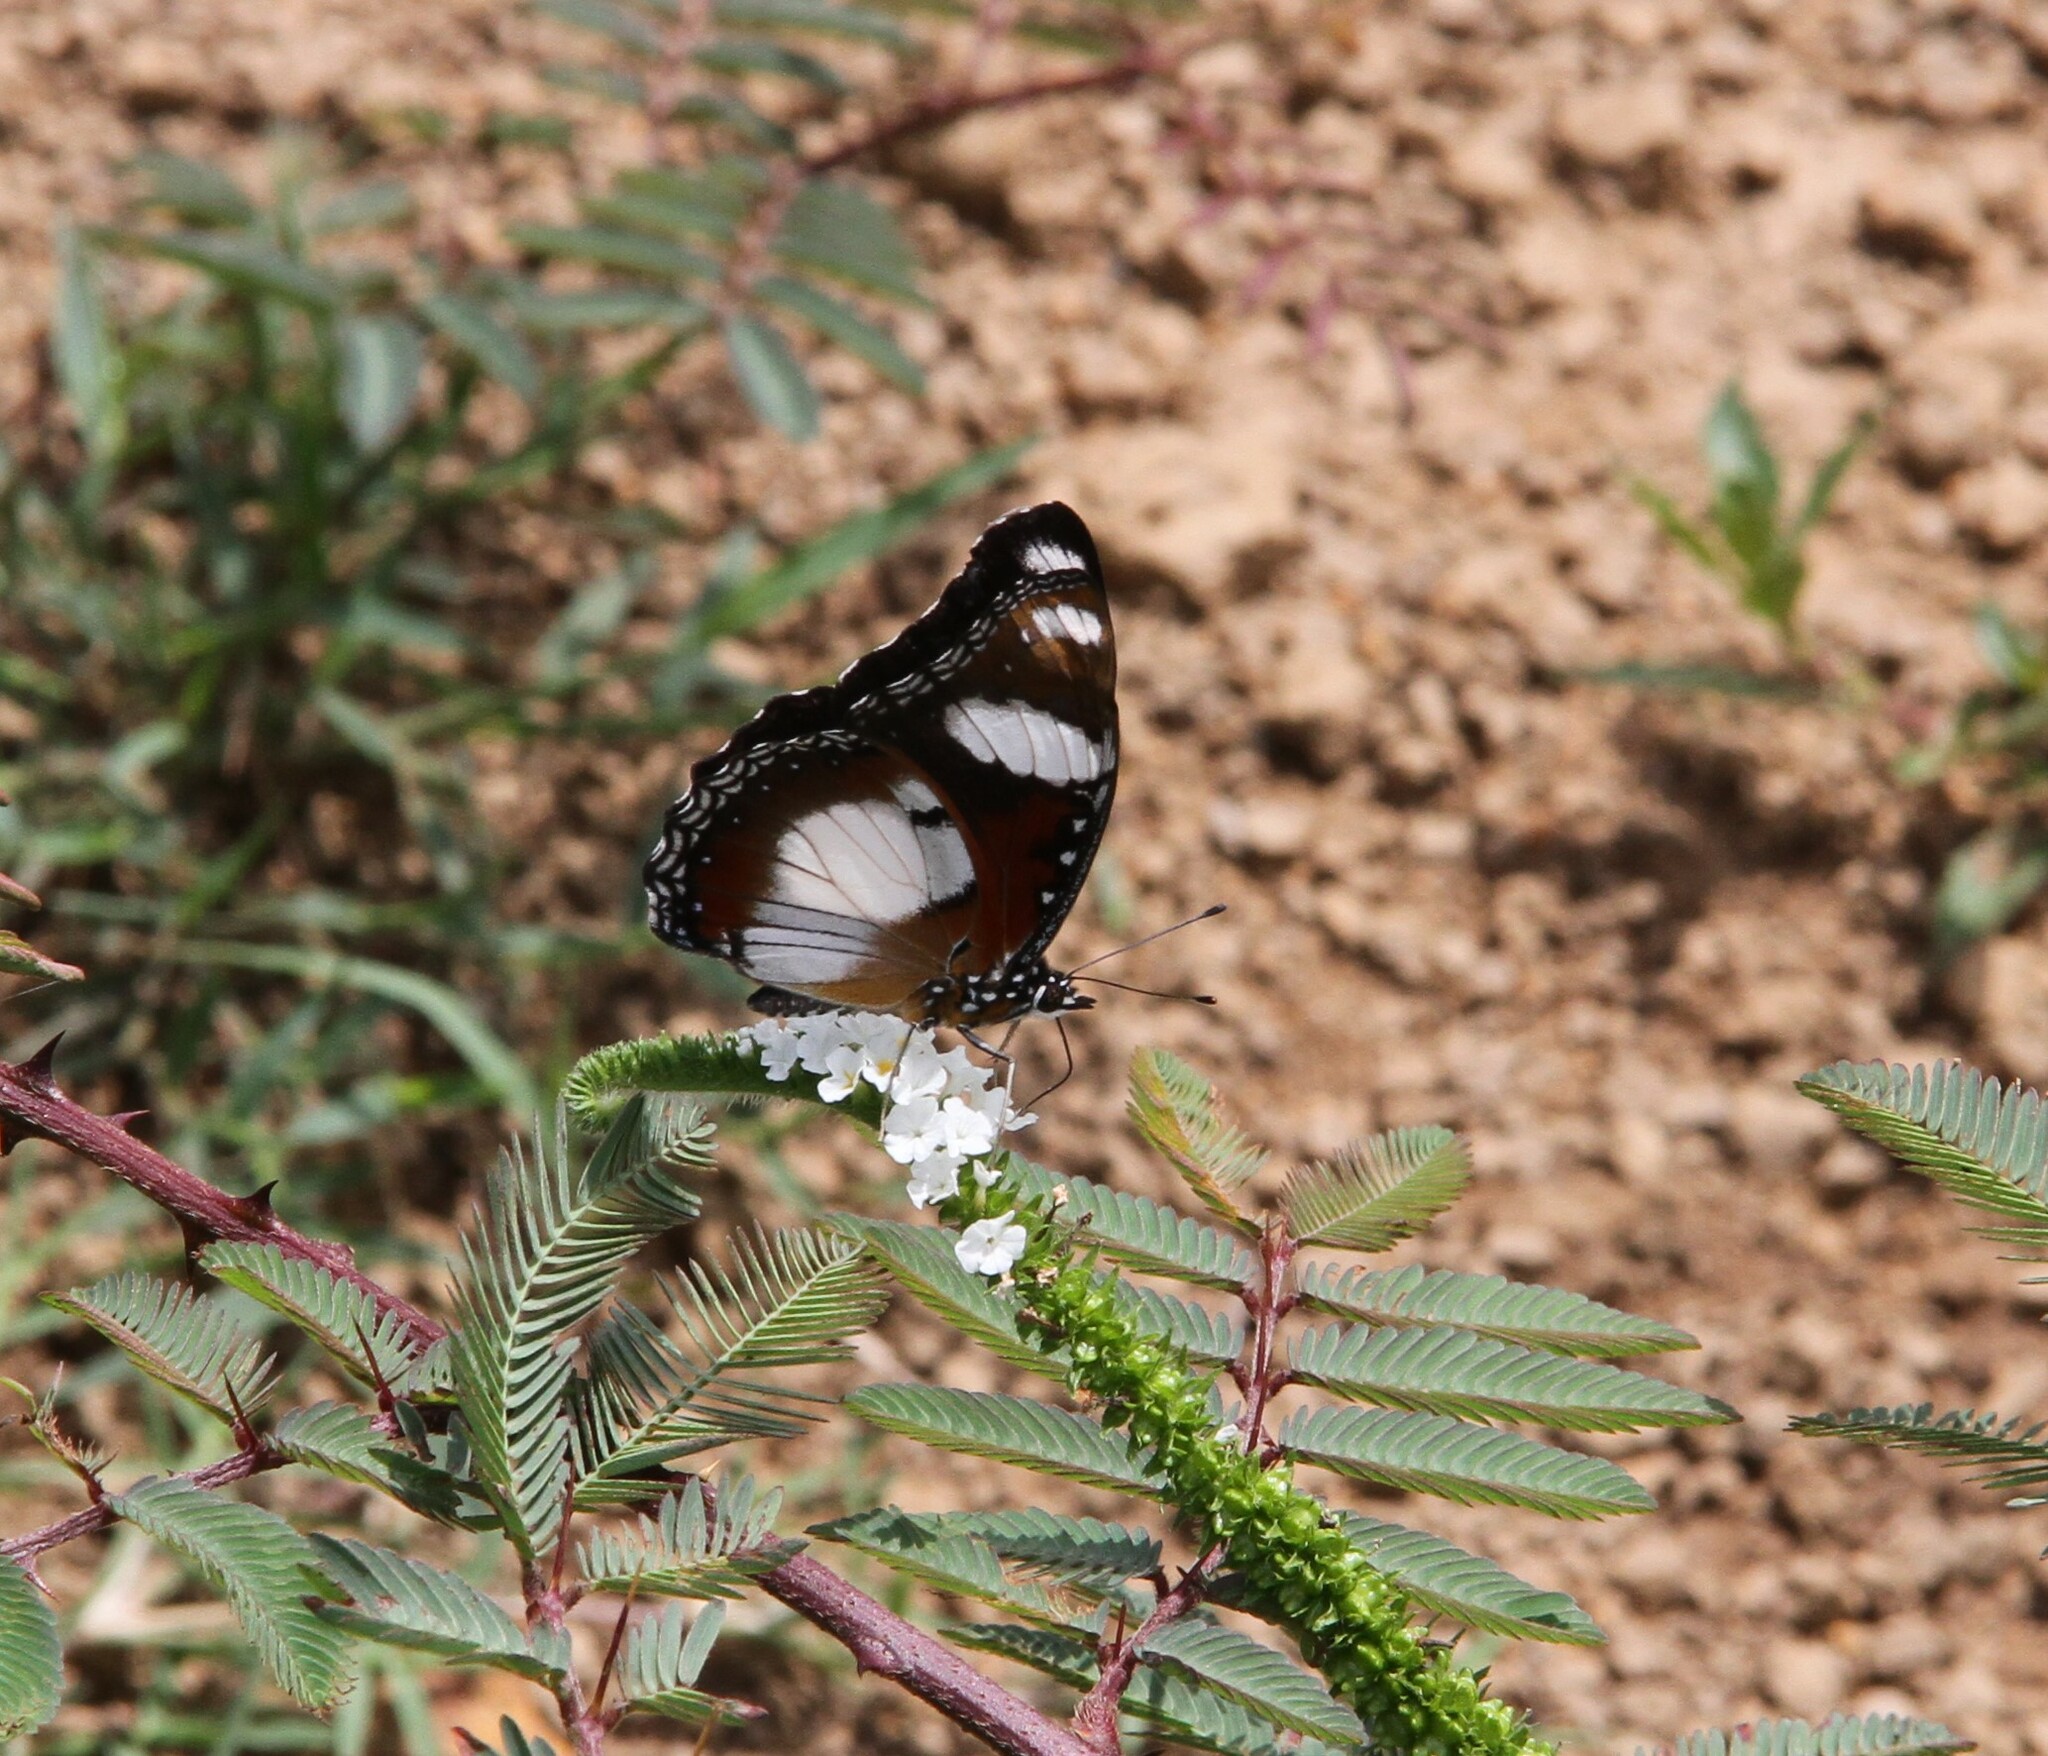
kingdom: Animalia
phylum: Arthropoda
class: Insecta
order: Lepidoptera
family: Nymphalidae
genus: Hypolimnas
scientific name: Hypolimnas misippus
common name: False plain tiger
